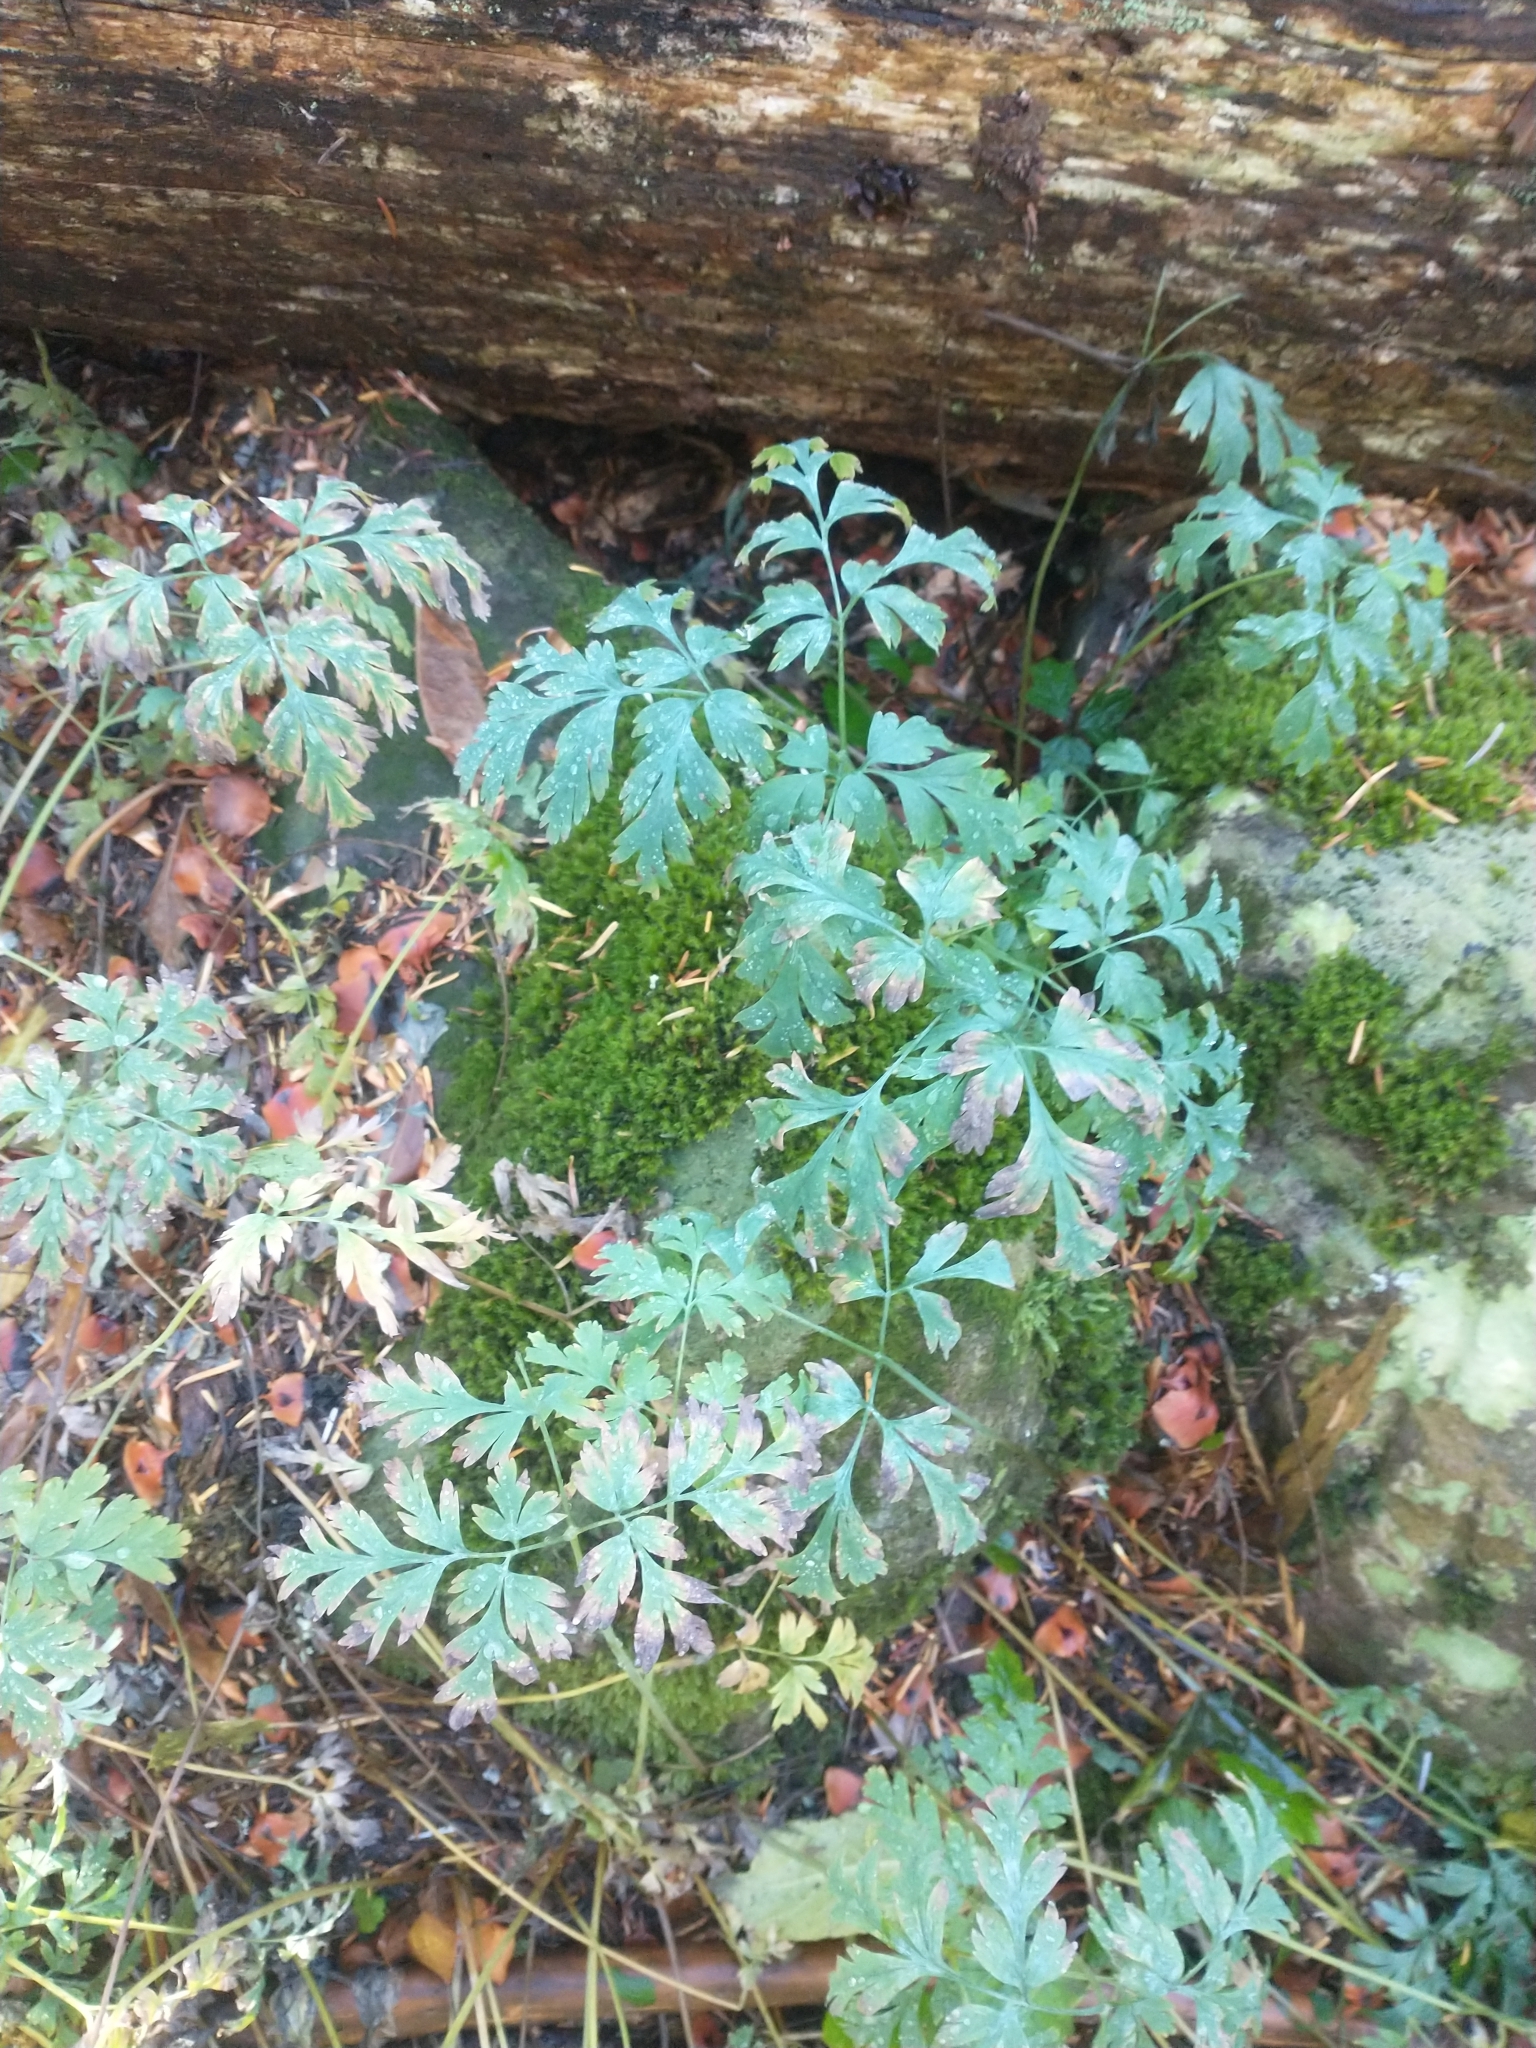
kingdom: Plantae
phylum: Tracheophyta
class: Magnoliopsida
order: Ranunculales
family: Papaveraceae
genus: Dicentra
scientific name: Dicentra formosa
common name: Bleeding-heart
